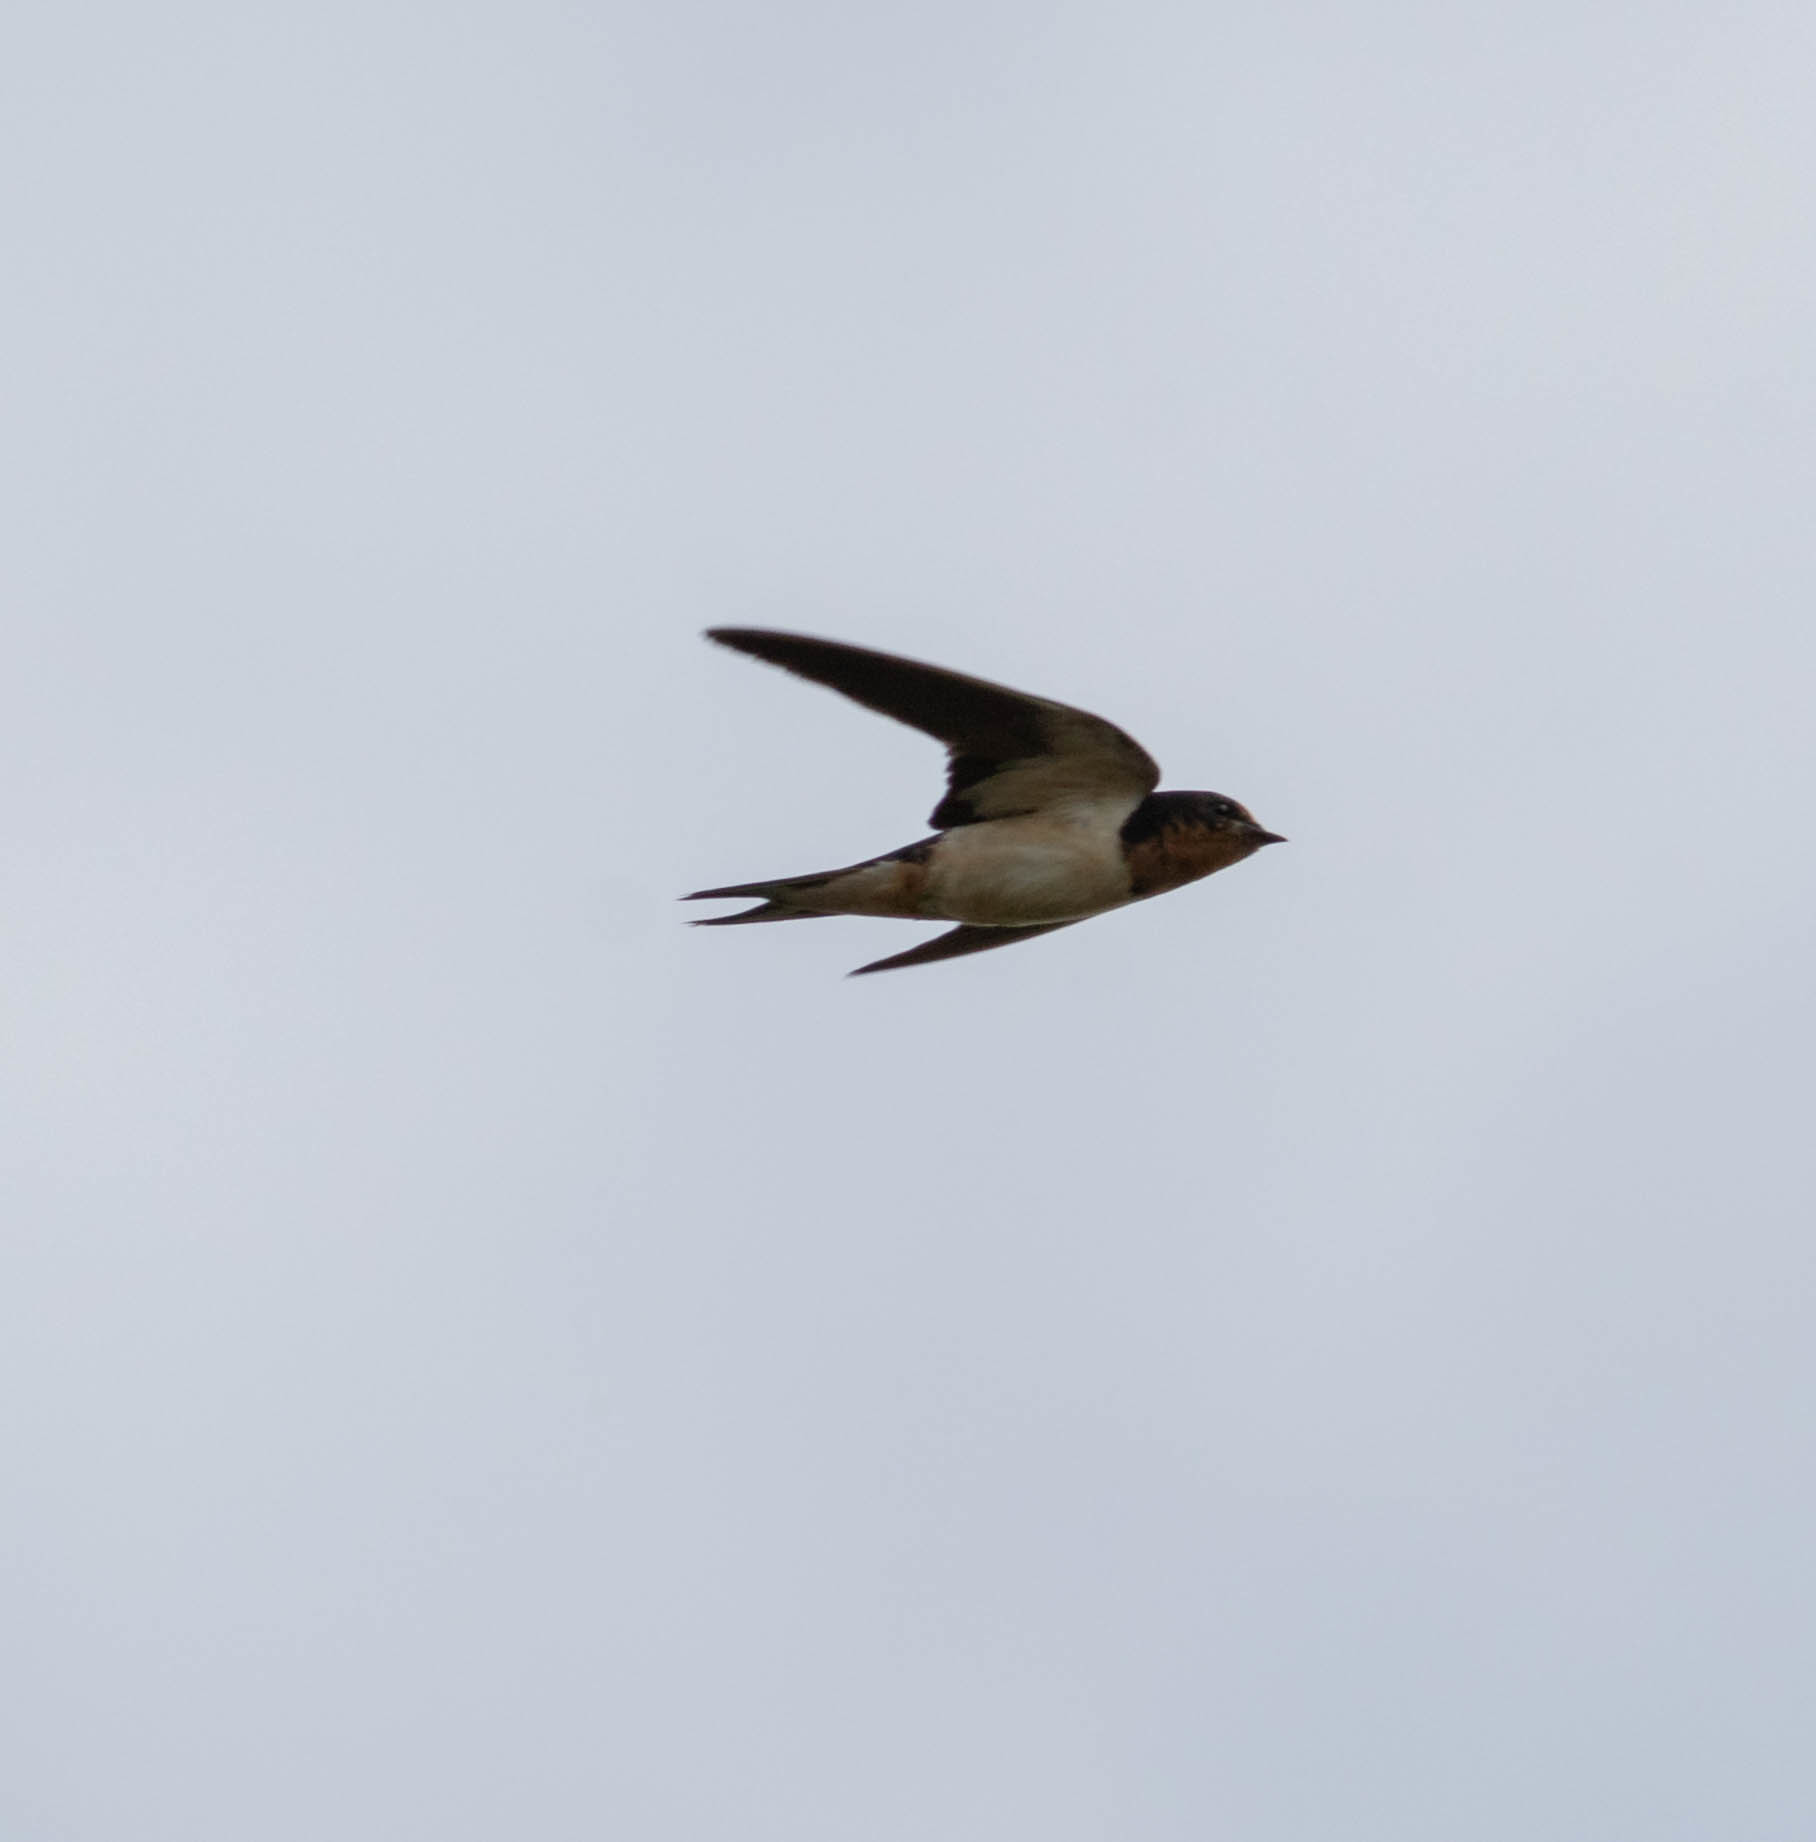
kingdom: Animalia
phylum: Chordata
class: Aves
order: Passeriformes
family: Hirundinidae
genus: Hirundo
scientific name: Hirundo rustica
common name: Barn swallow
